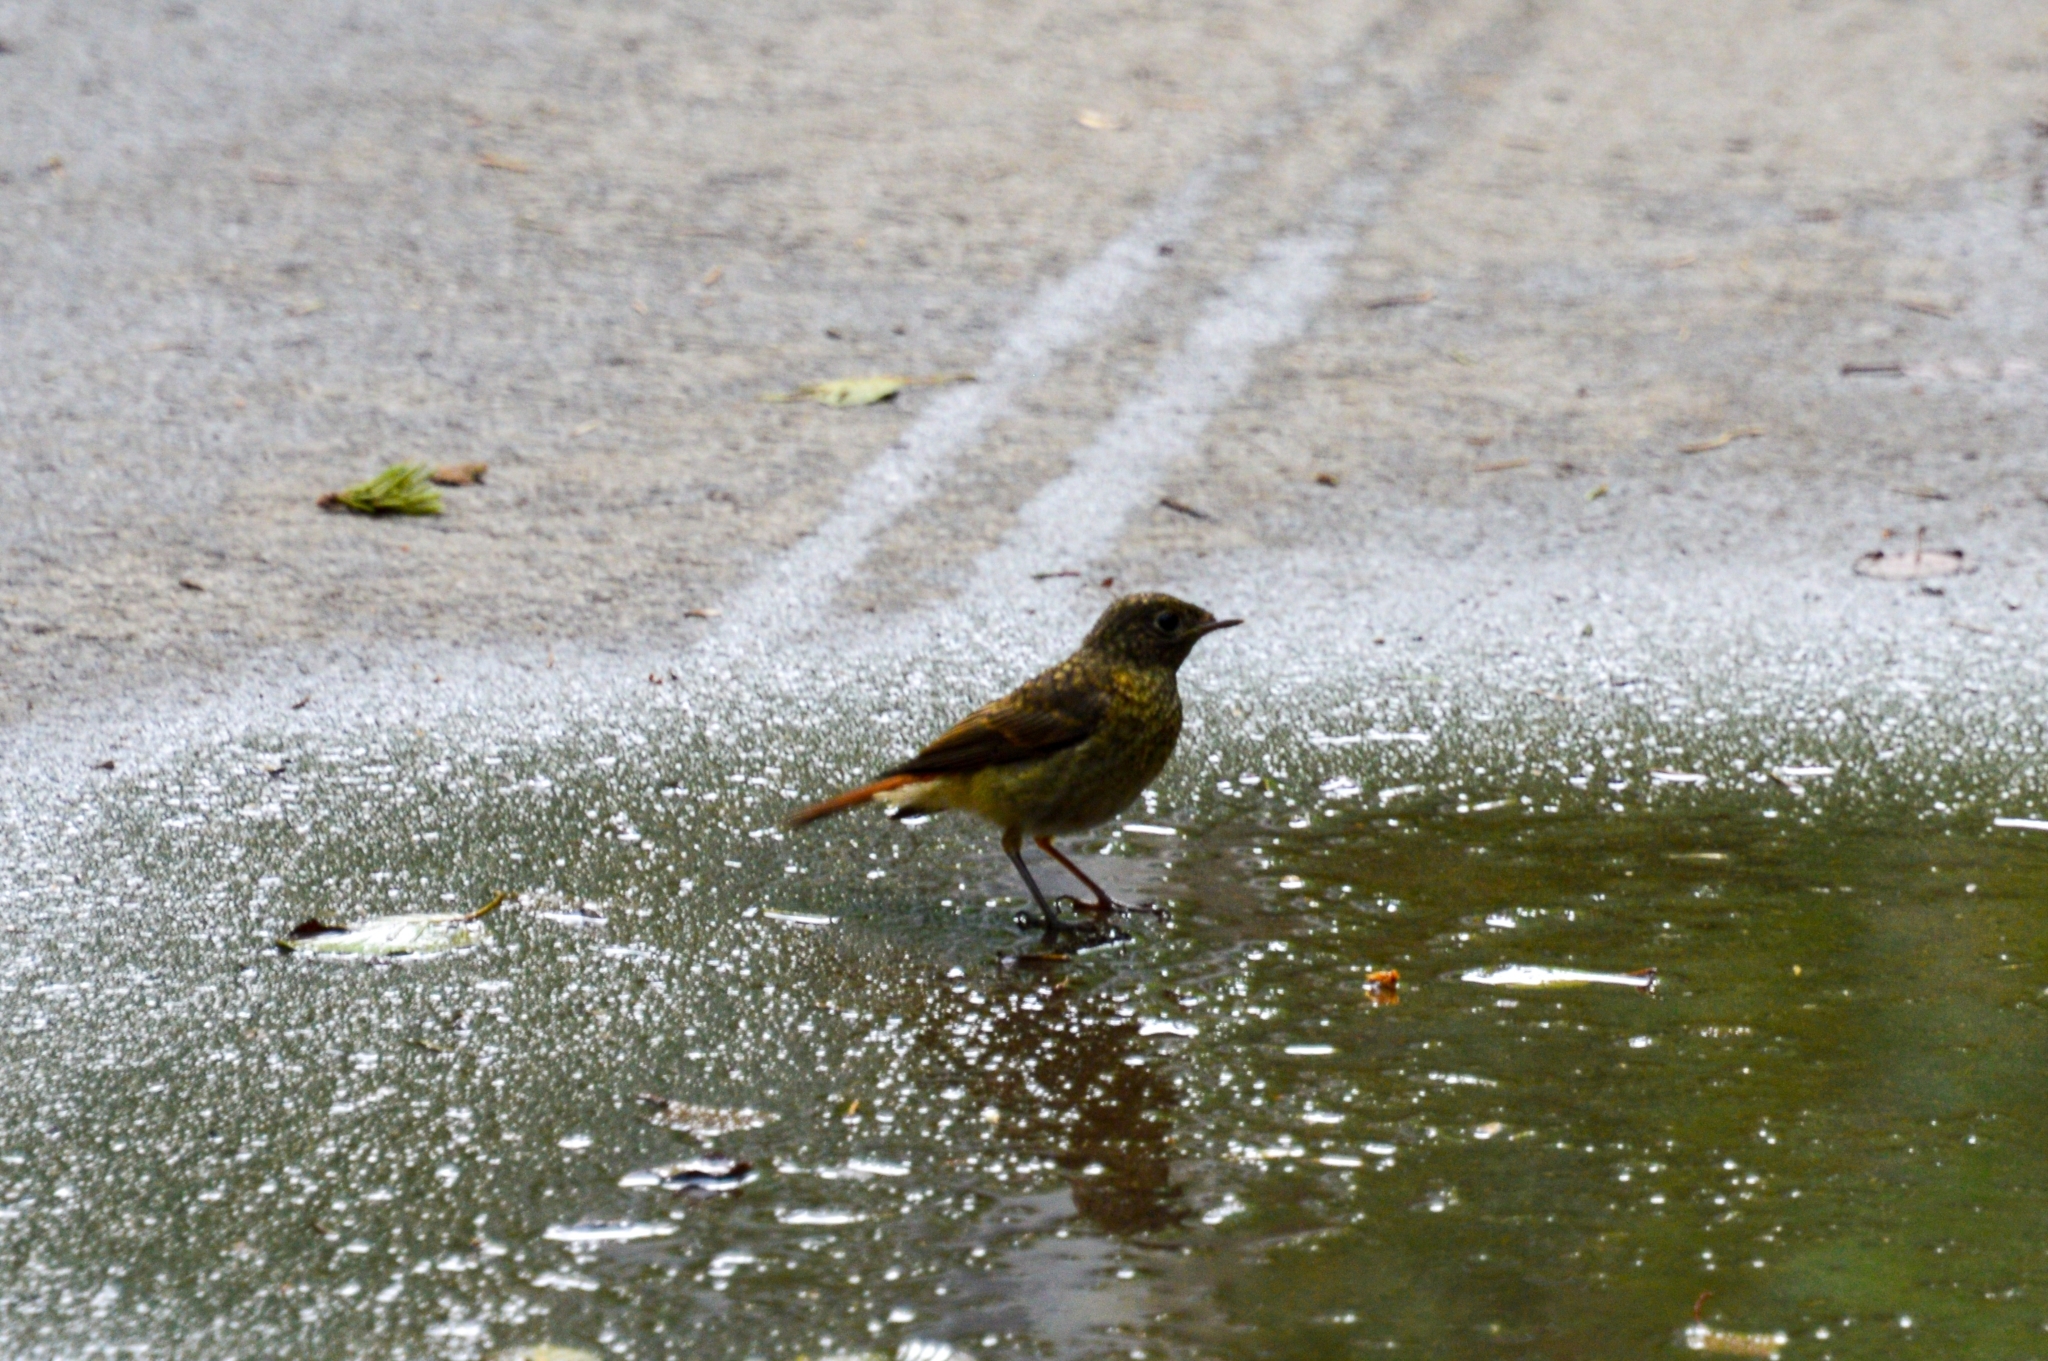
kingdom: Animalia
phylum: Chordata
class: Aves
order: Passeriformes
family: Muscicapidae
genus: Phoenicurus
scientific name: Phoenicurus phoenicurus
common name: Common redstart
